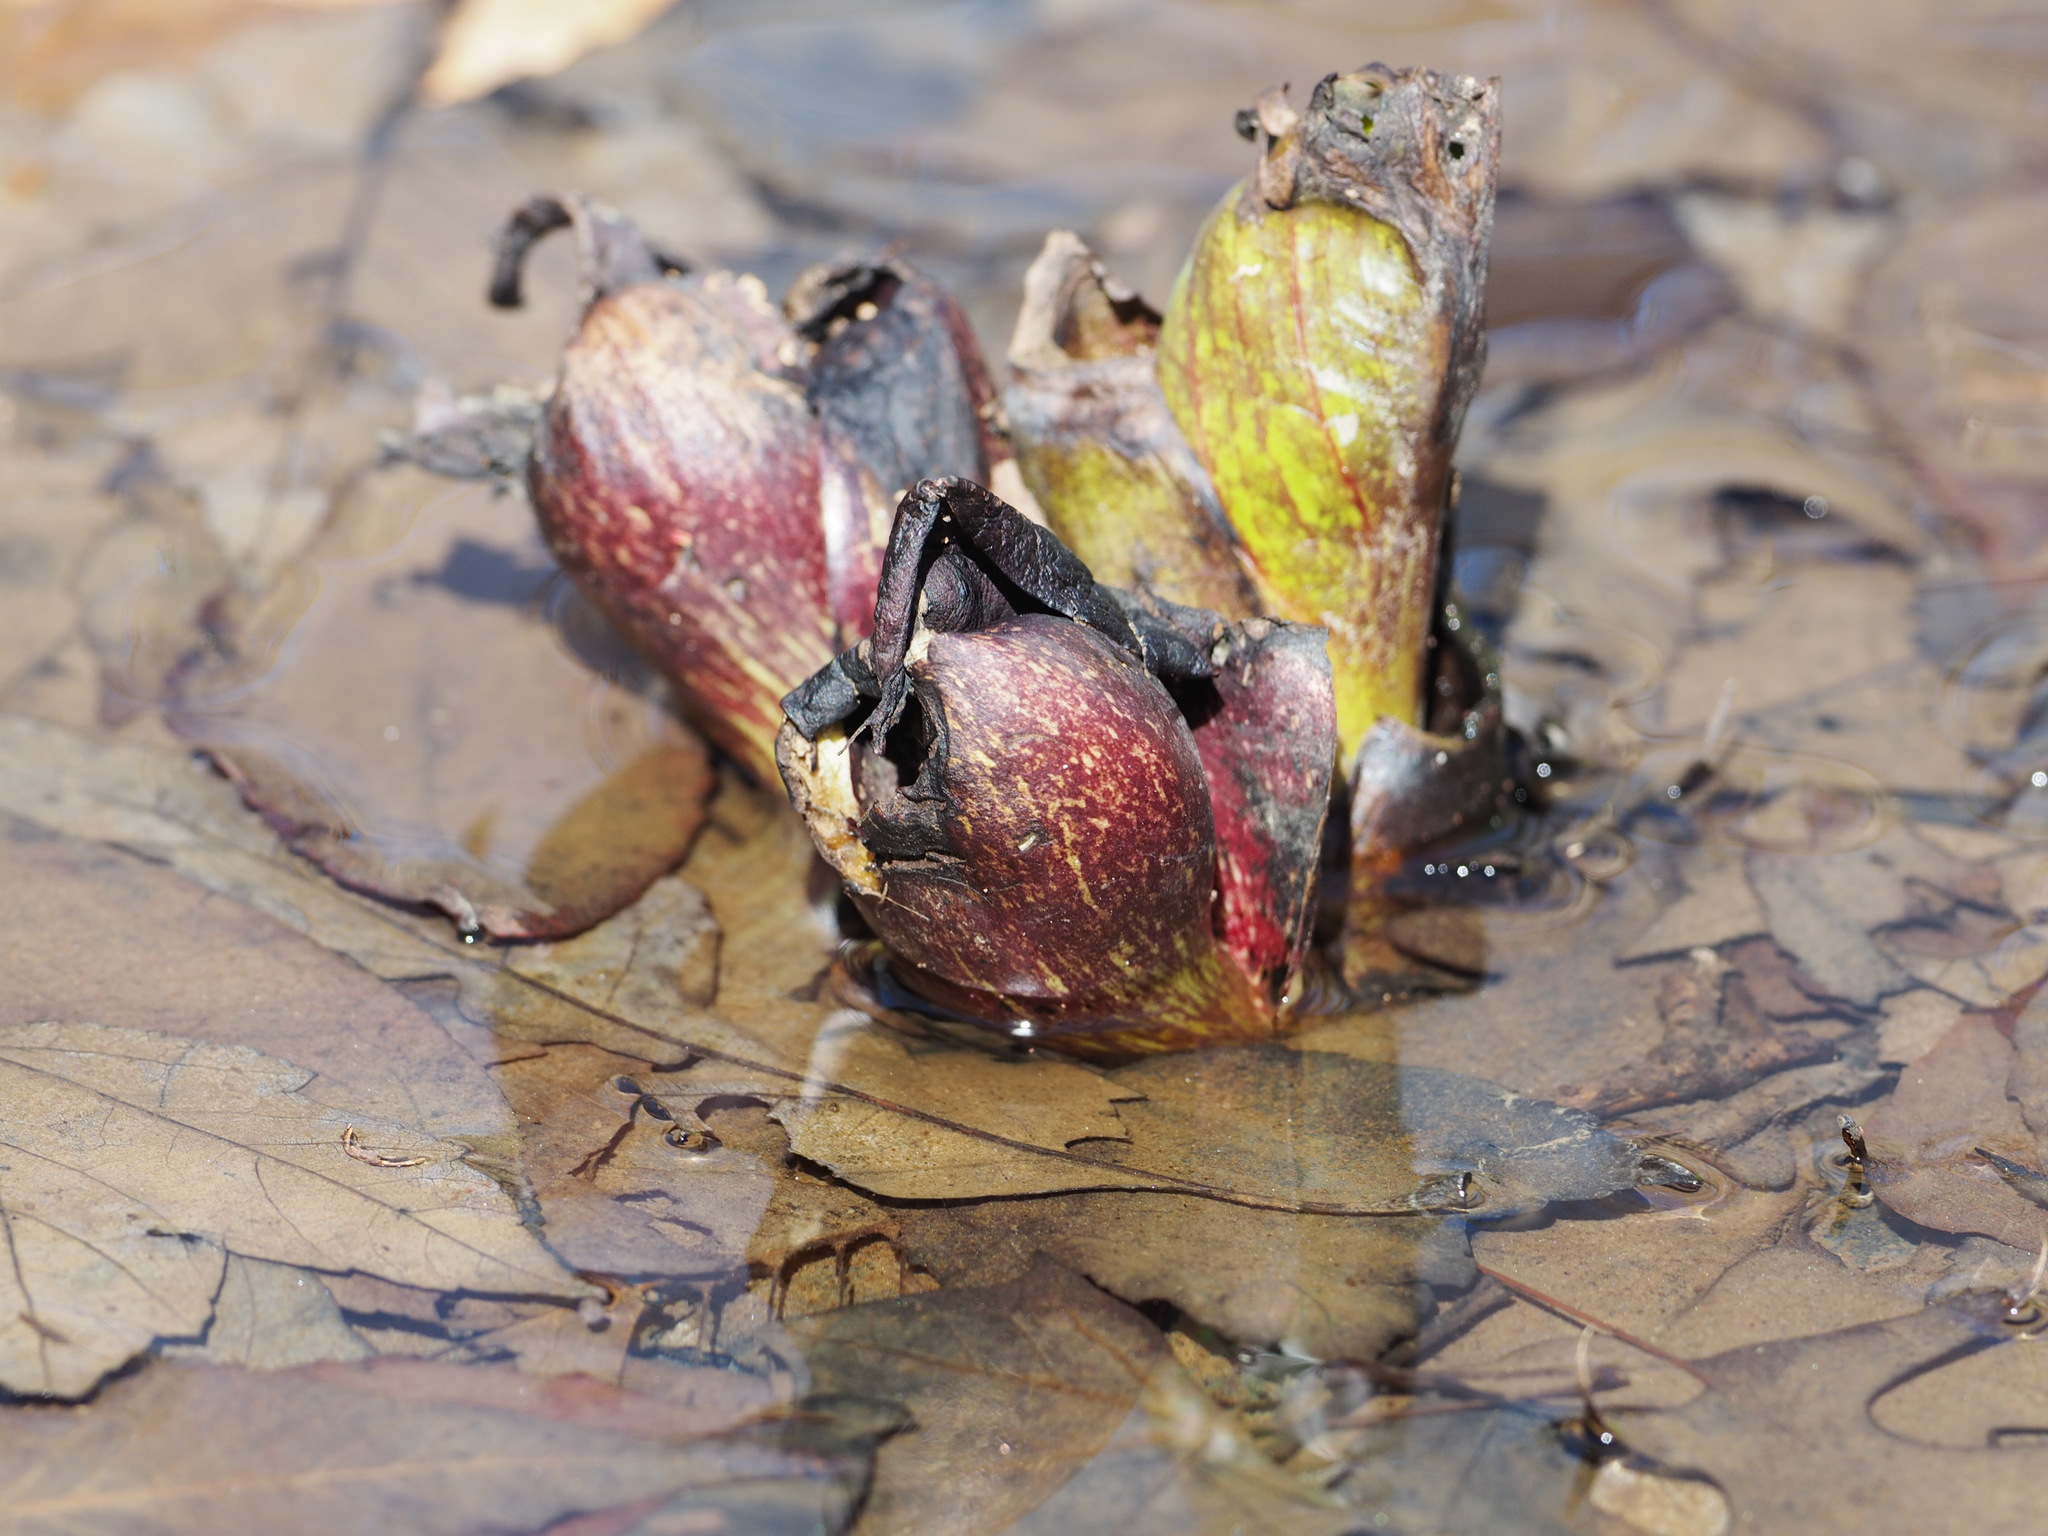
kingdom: Plantae
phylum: Tracheophyta
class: Liliopsida
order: Alismatales
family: Araceae
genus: Symplocarpus
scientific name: Symplocarpus foetidus
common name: Eastern skunk cabbage
